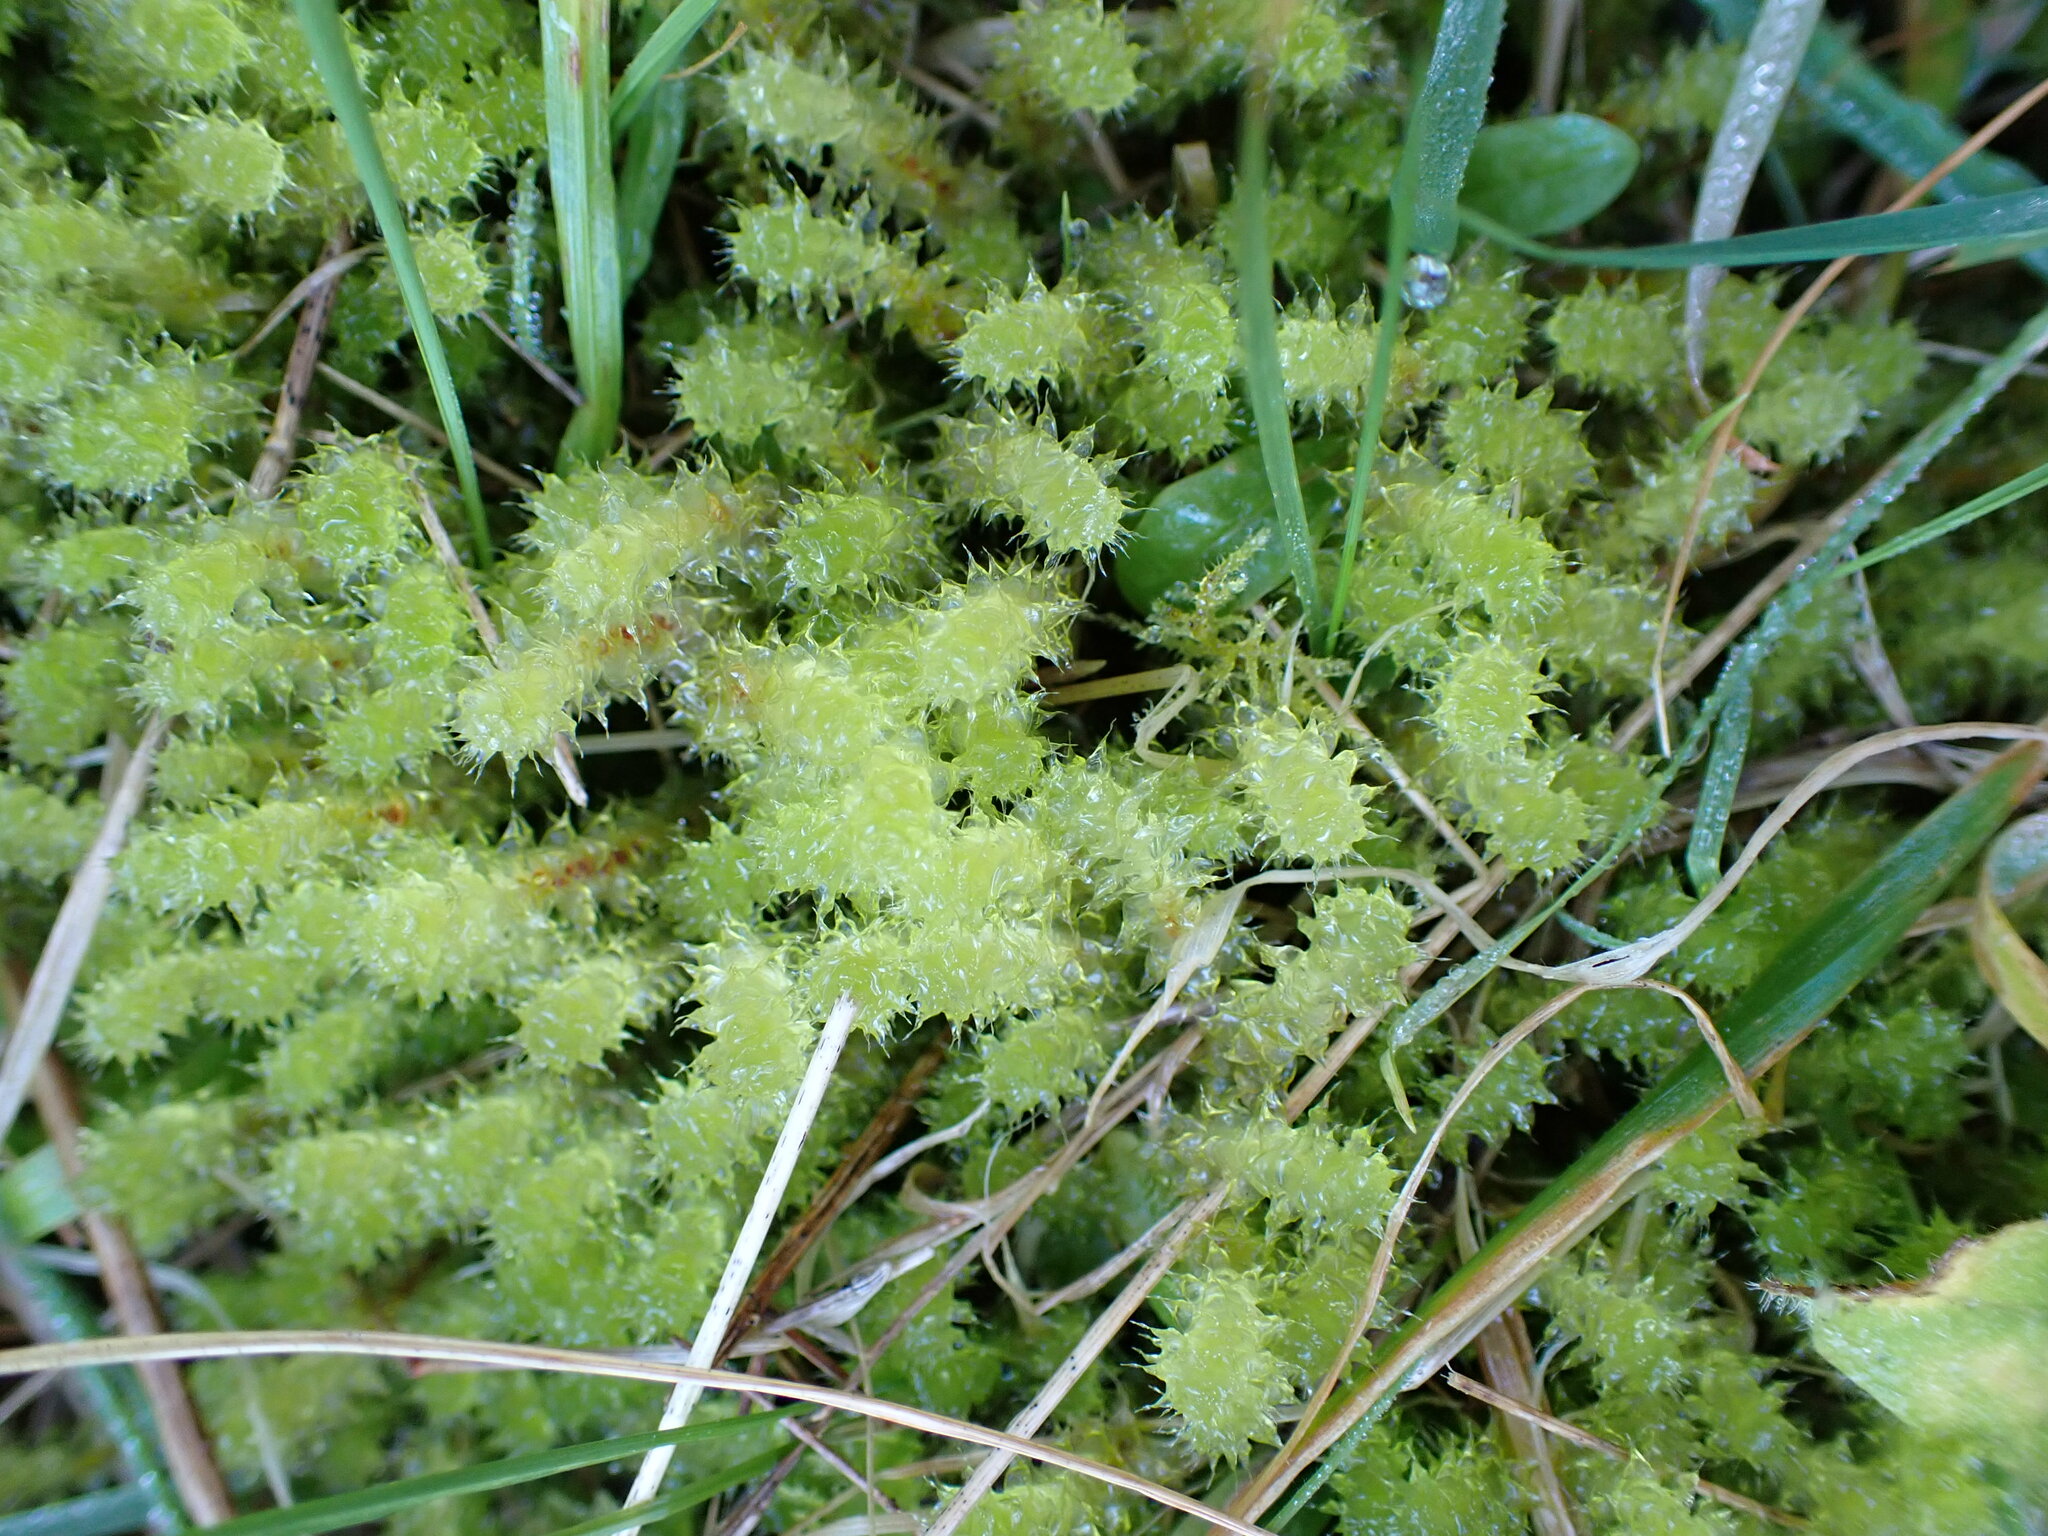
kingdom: Plantae
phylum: Bryophyta
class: Bryopsida
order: Ptychomniales
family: Ptychomniaceae
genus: Ptychomnion
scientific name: Ptychomnion aciculare
